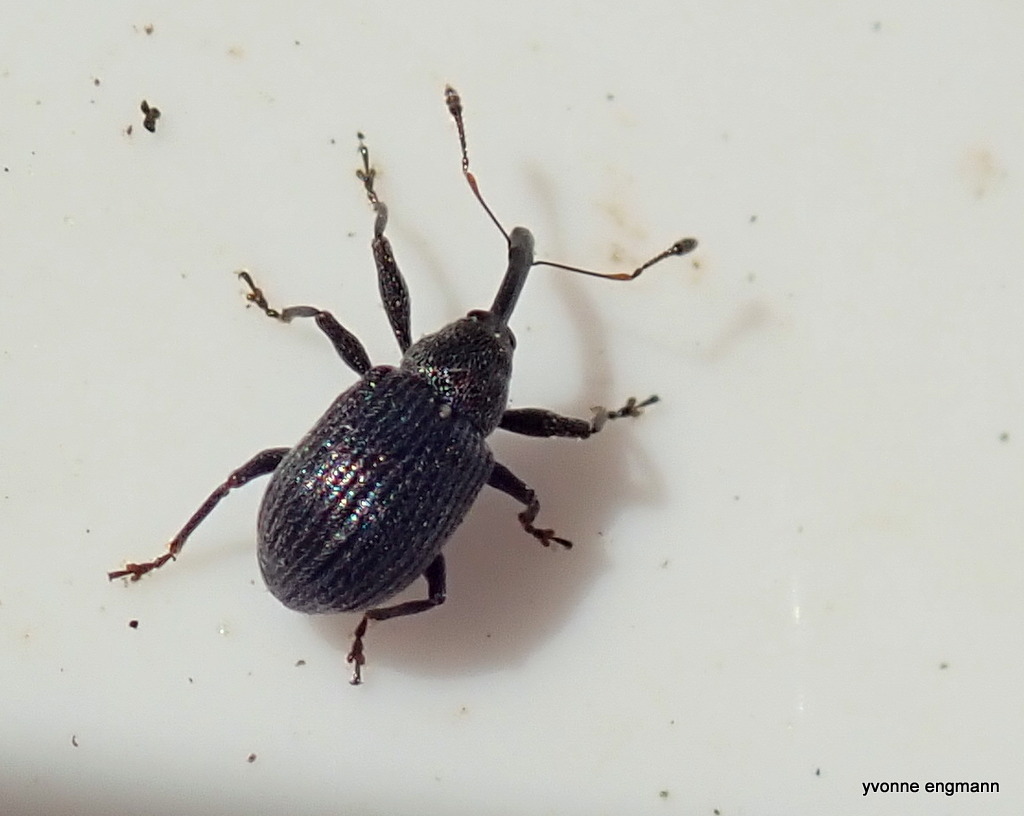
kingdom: Animalia
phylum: Arthropoda
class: Insecta
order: Coleoptera
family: Curculionidae
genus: Anthonomus
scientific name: Anthonomus rubi
